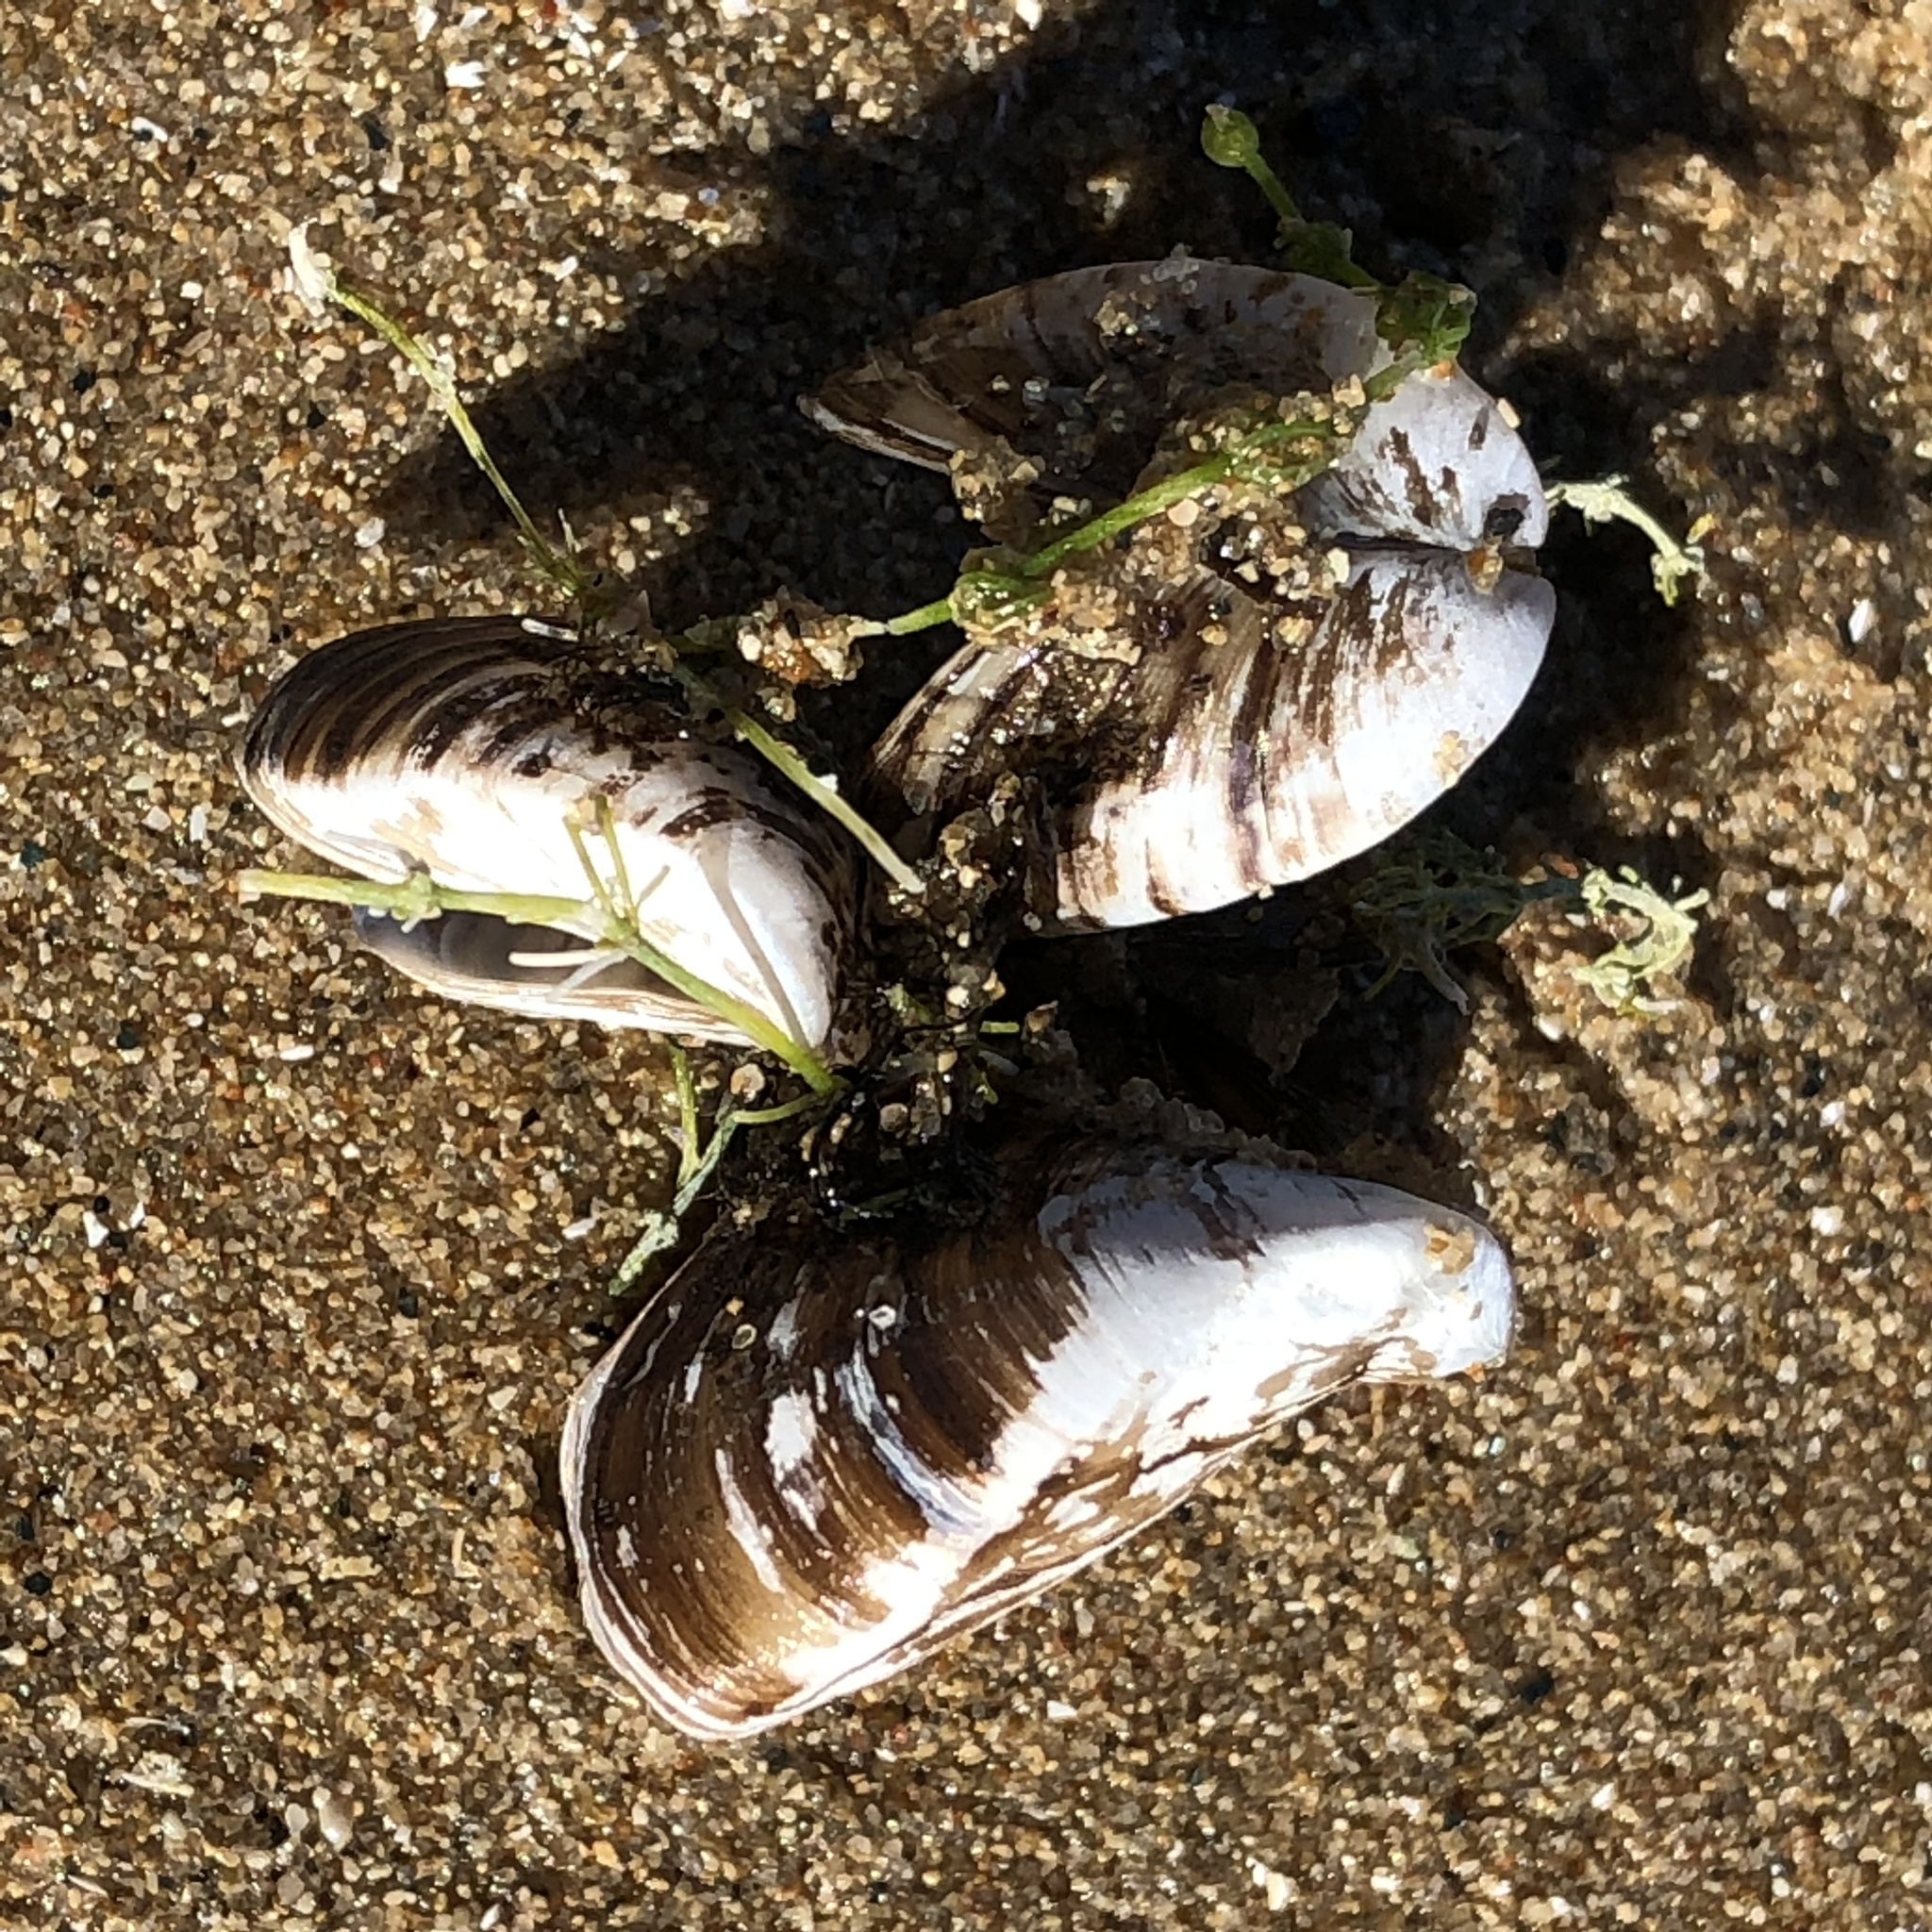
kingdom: Animalia
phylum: Mollusca
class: Bivalvia
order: Myida
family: Dreissenidae
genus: Dreissena
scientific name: Dreissena polymorpha
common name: Zebra mussel
